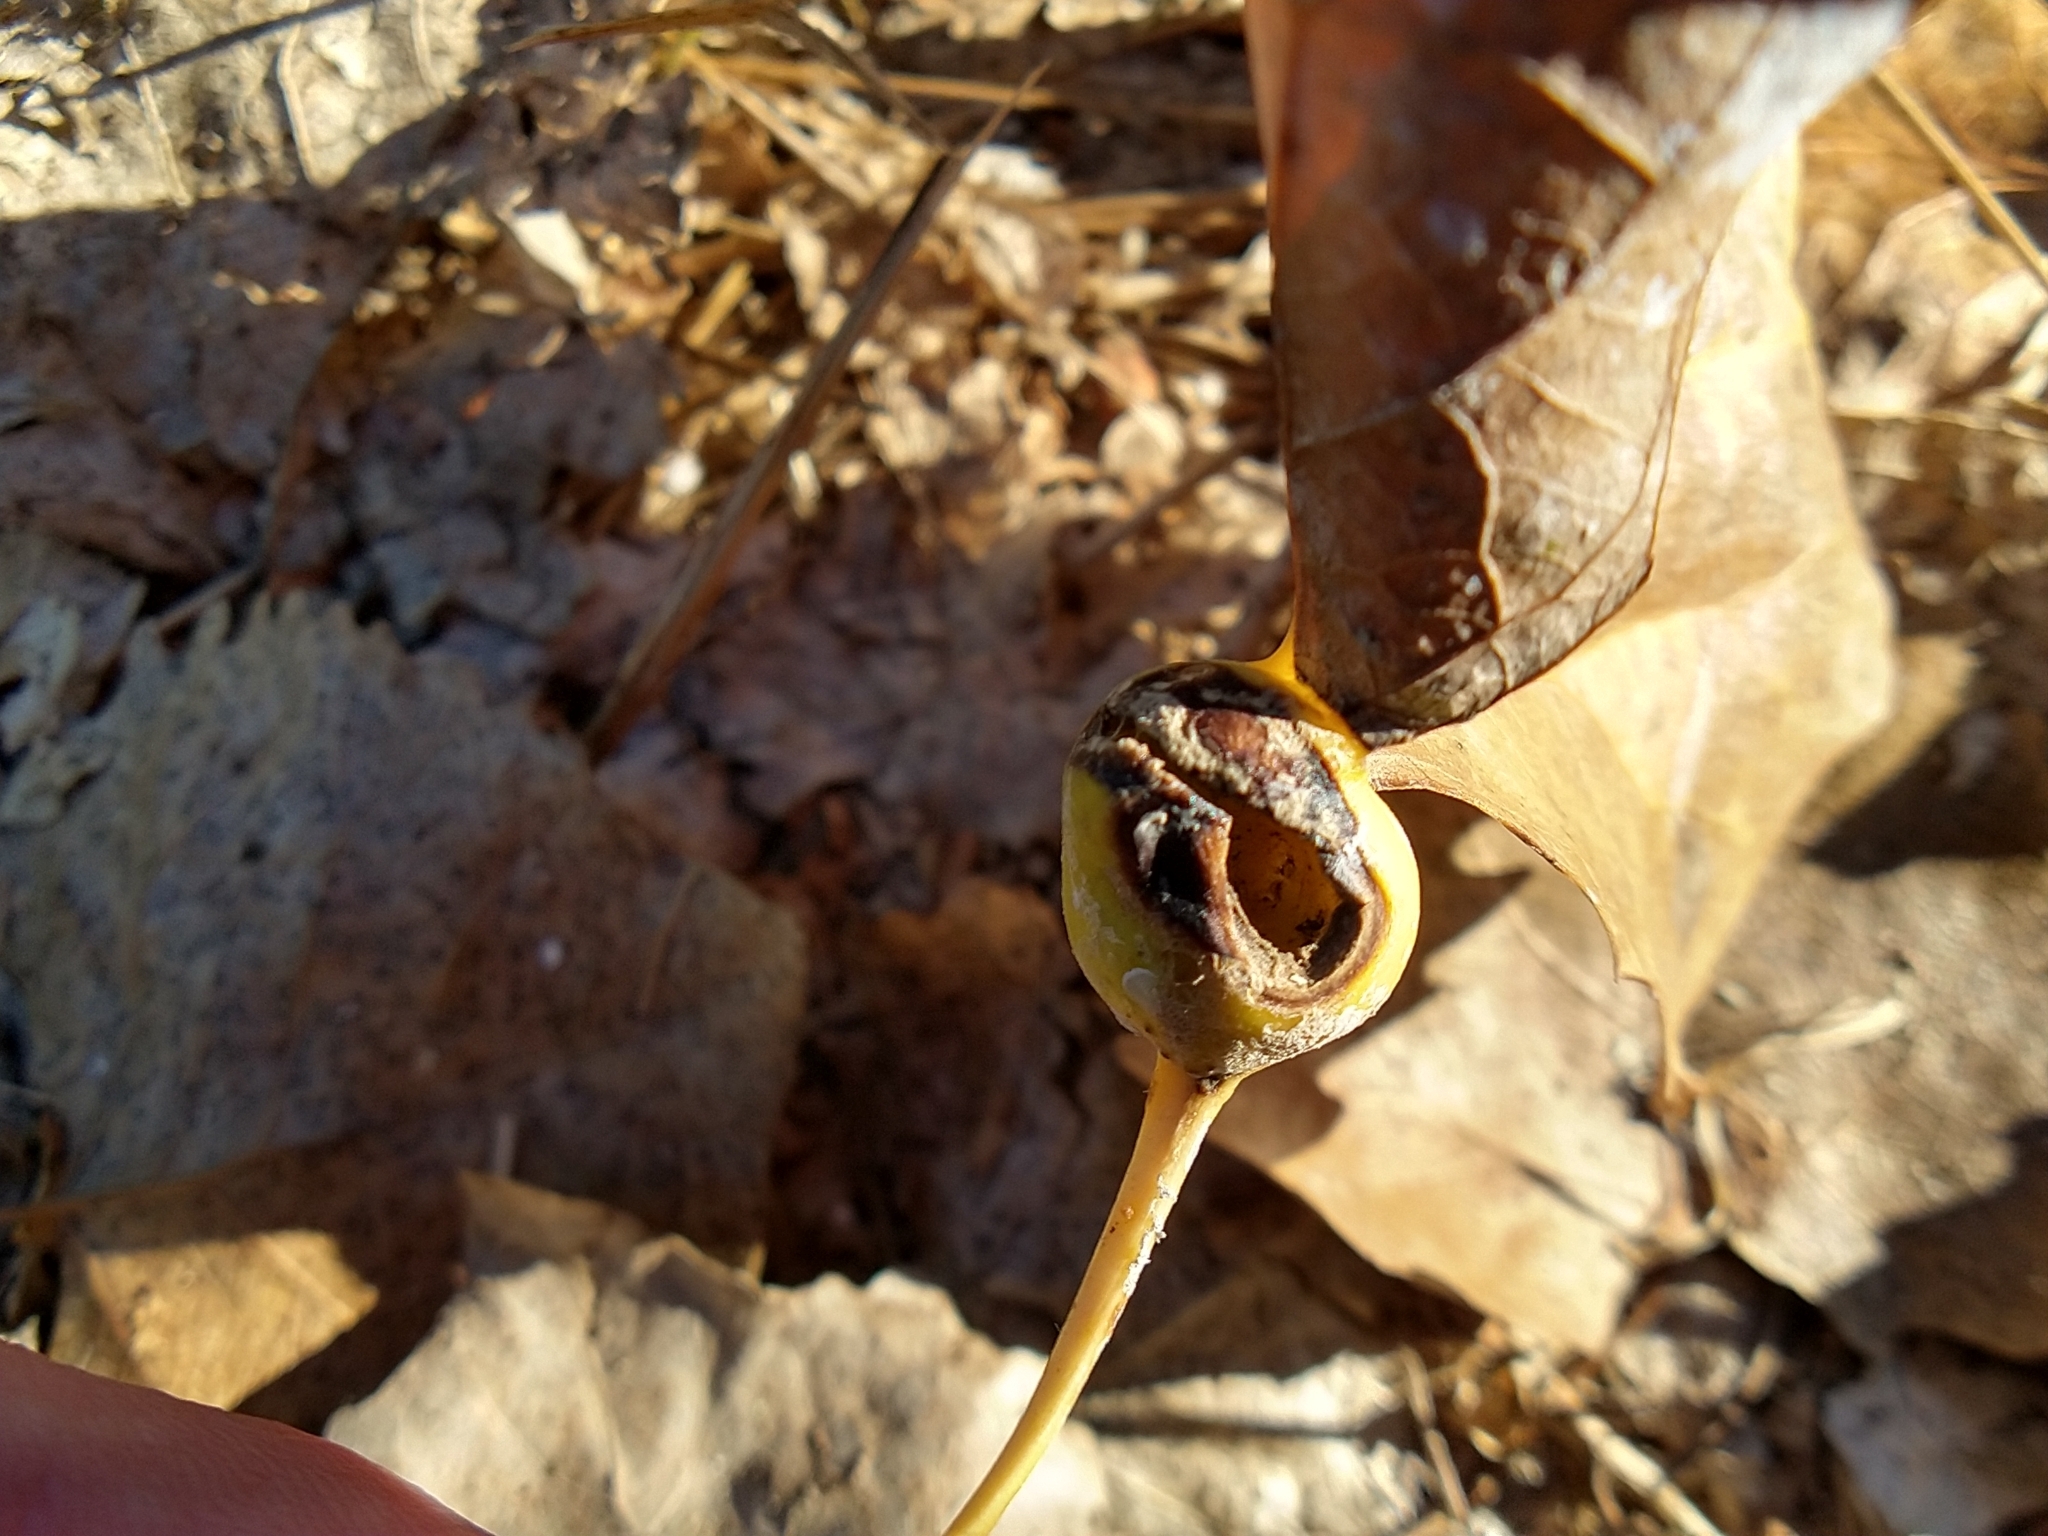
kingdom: Animalia
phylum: Arthropoda
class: Insecta
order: Hemiptera
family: Aphididae
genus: Pemphigus
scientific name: Pemphigus obesinymphae
